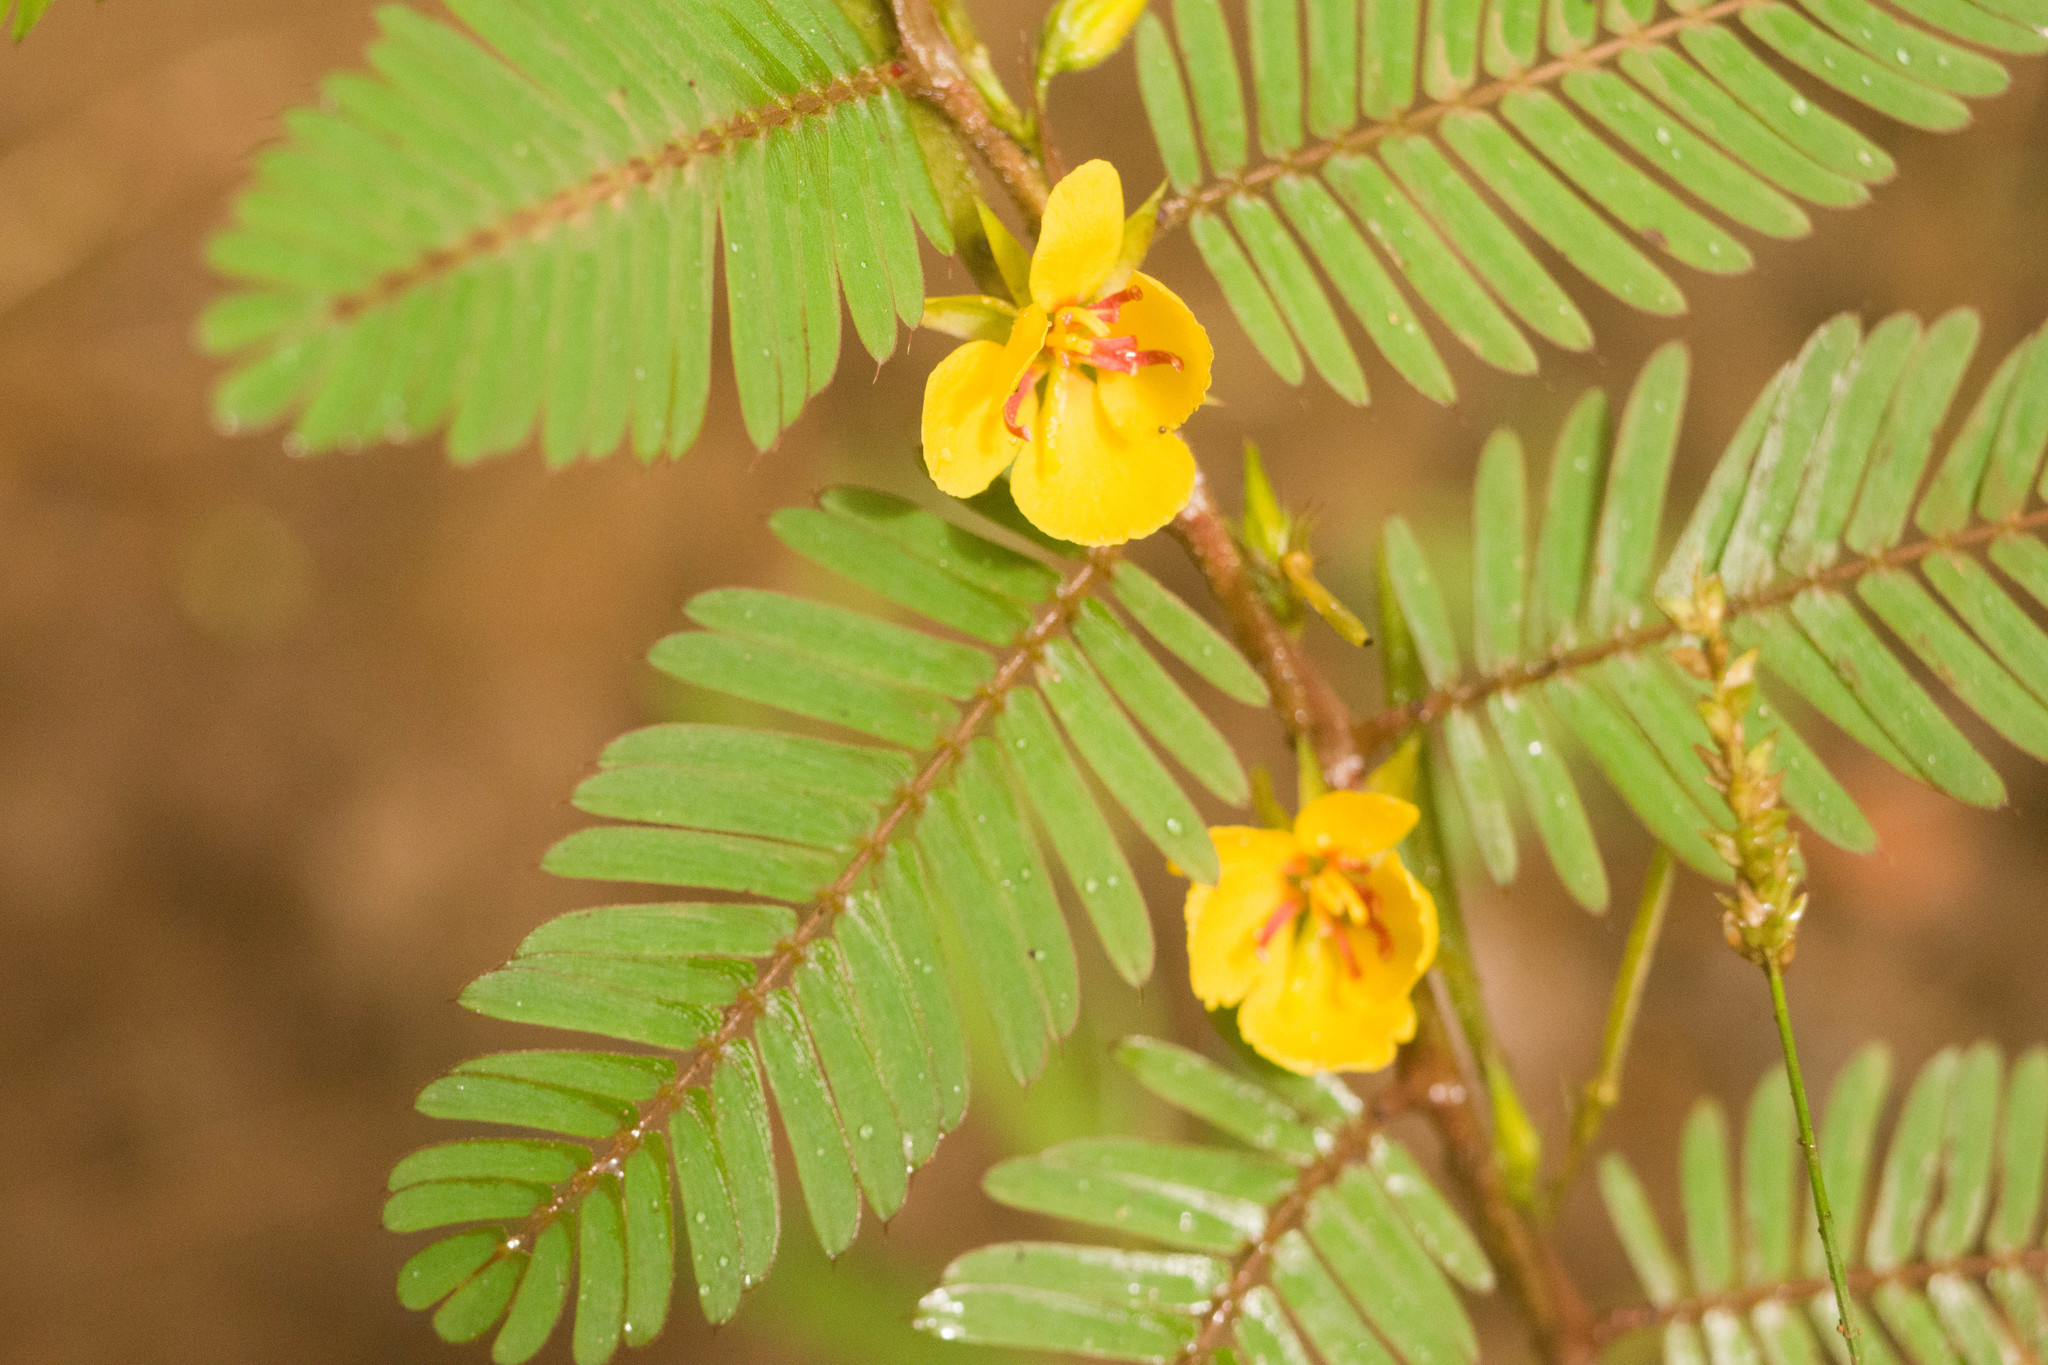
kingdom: Plantae
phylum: Tracheophyta
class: Magnoliopsida
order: Fabales
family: Fabaceae
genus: Chamaecrista
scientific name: Chamaecrista nictitans
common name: Sensitive cassia
